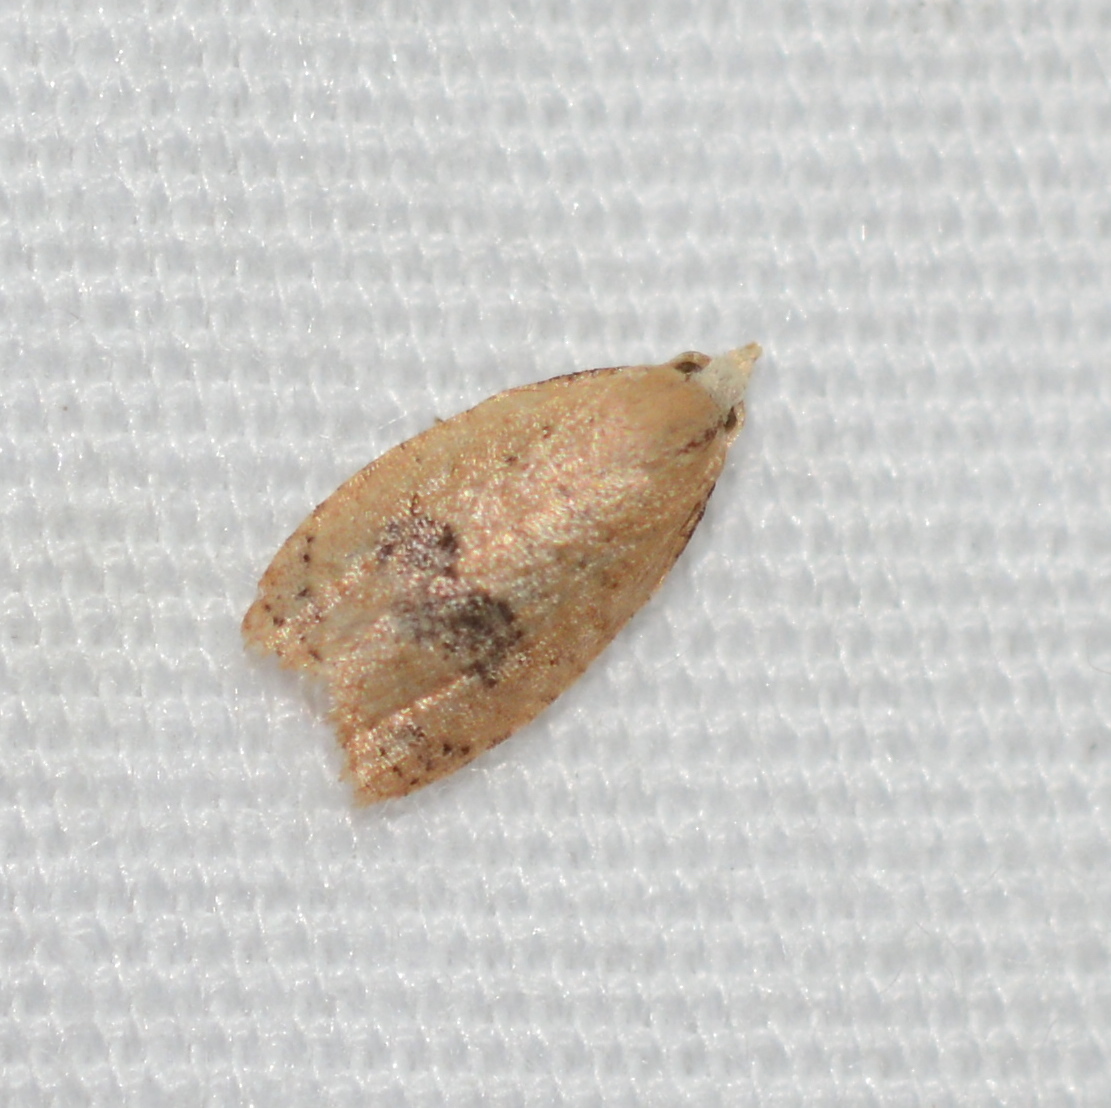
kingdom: Animalia
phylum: Arthropoda
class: Insecta
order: Lepidoptera
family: Tortricidae
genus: Sparganothoides
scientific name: Sparganothoides lentiginosana
